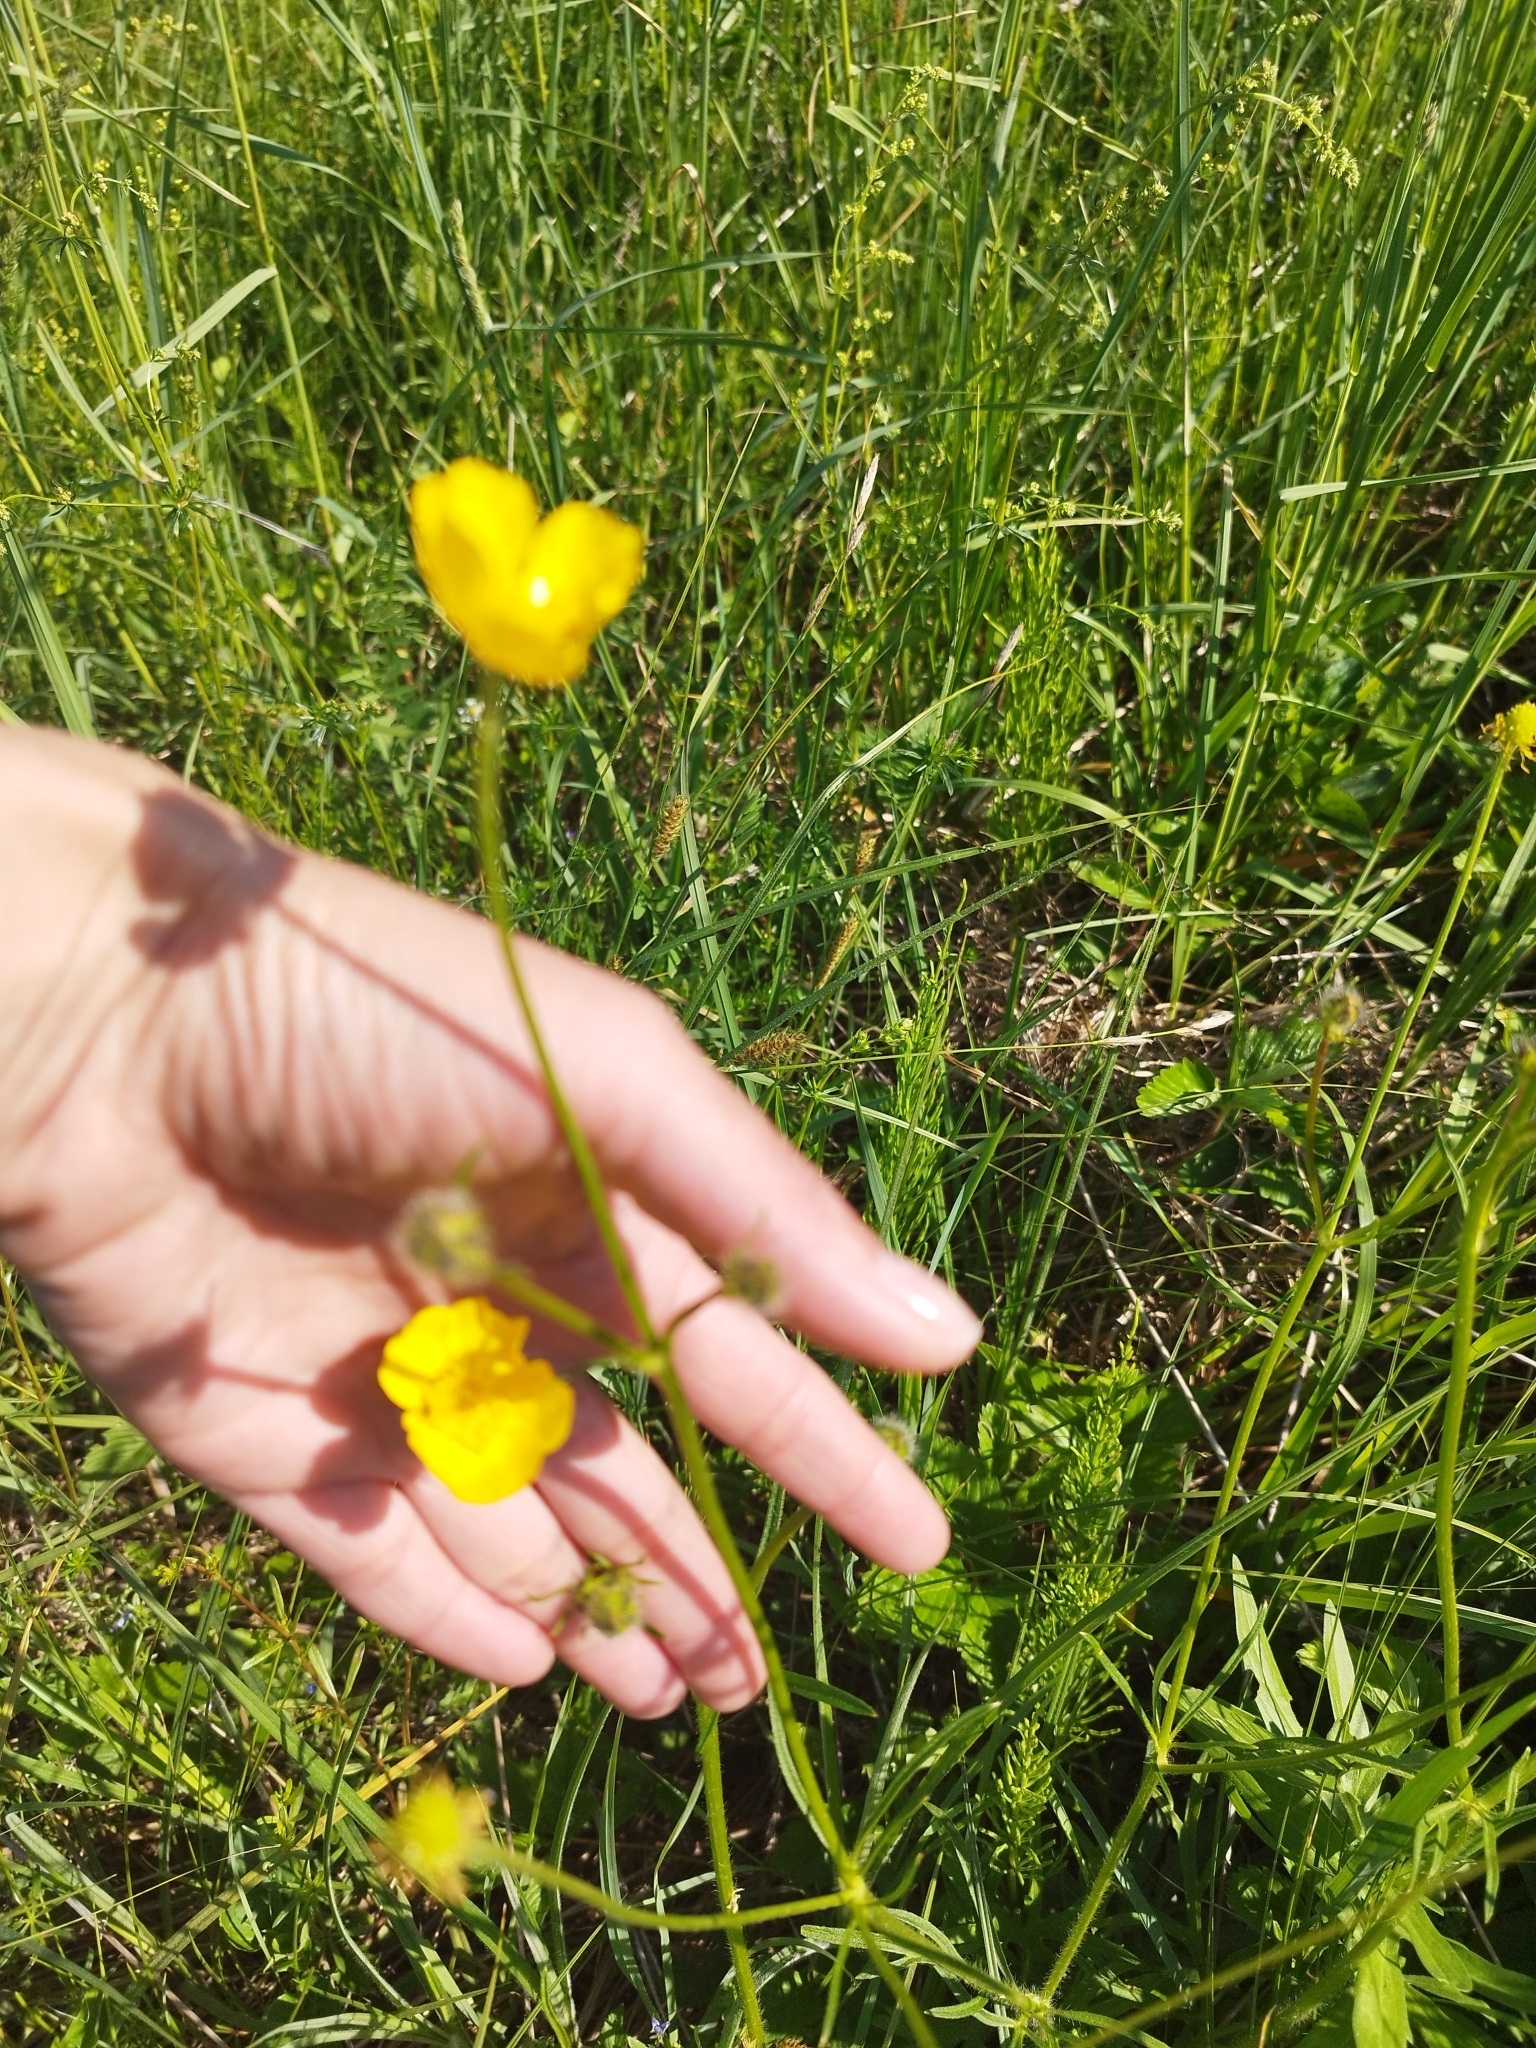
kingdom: Plantae
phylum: Tracheophyta
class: Magnoliopsida
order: Ranunculales
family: Ranunculaceae
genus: Ranunculus
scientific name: Ranunculus polyanthemos
